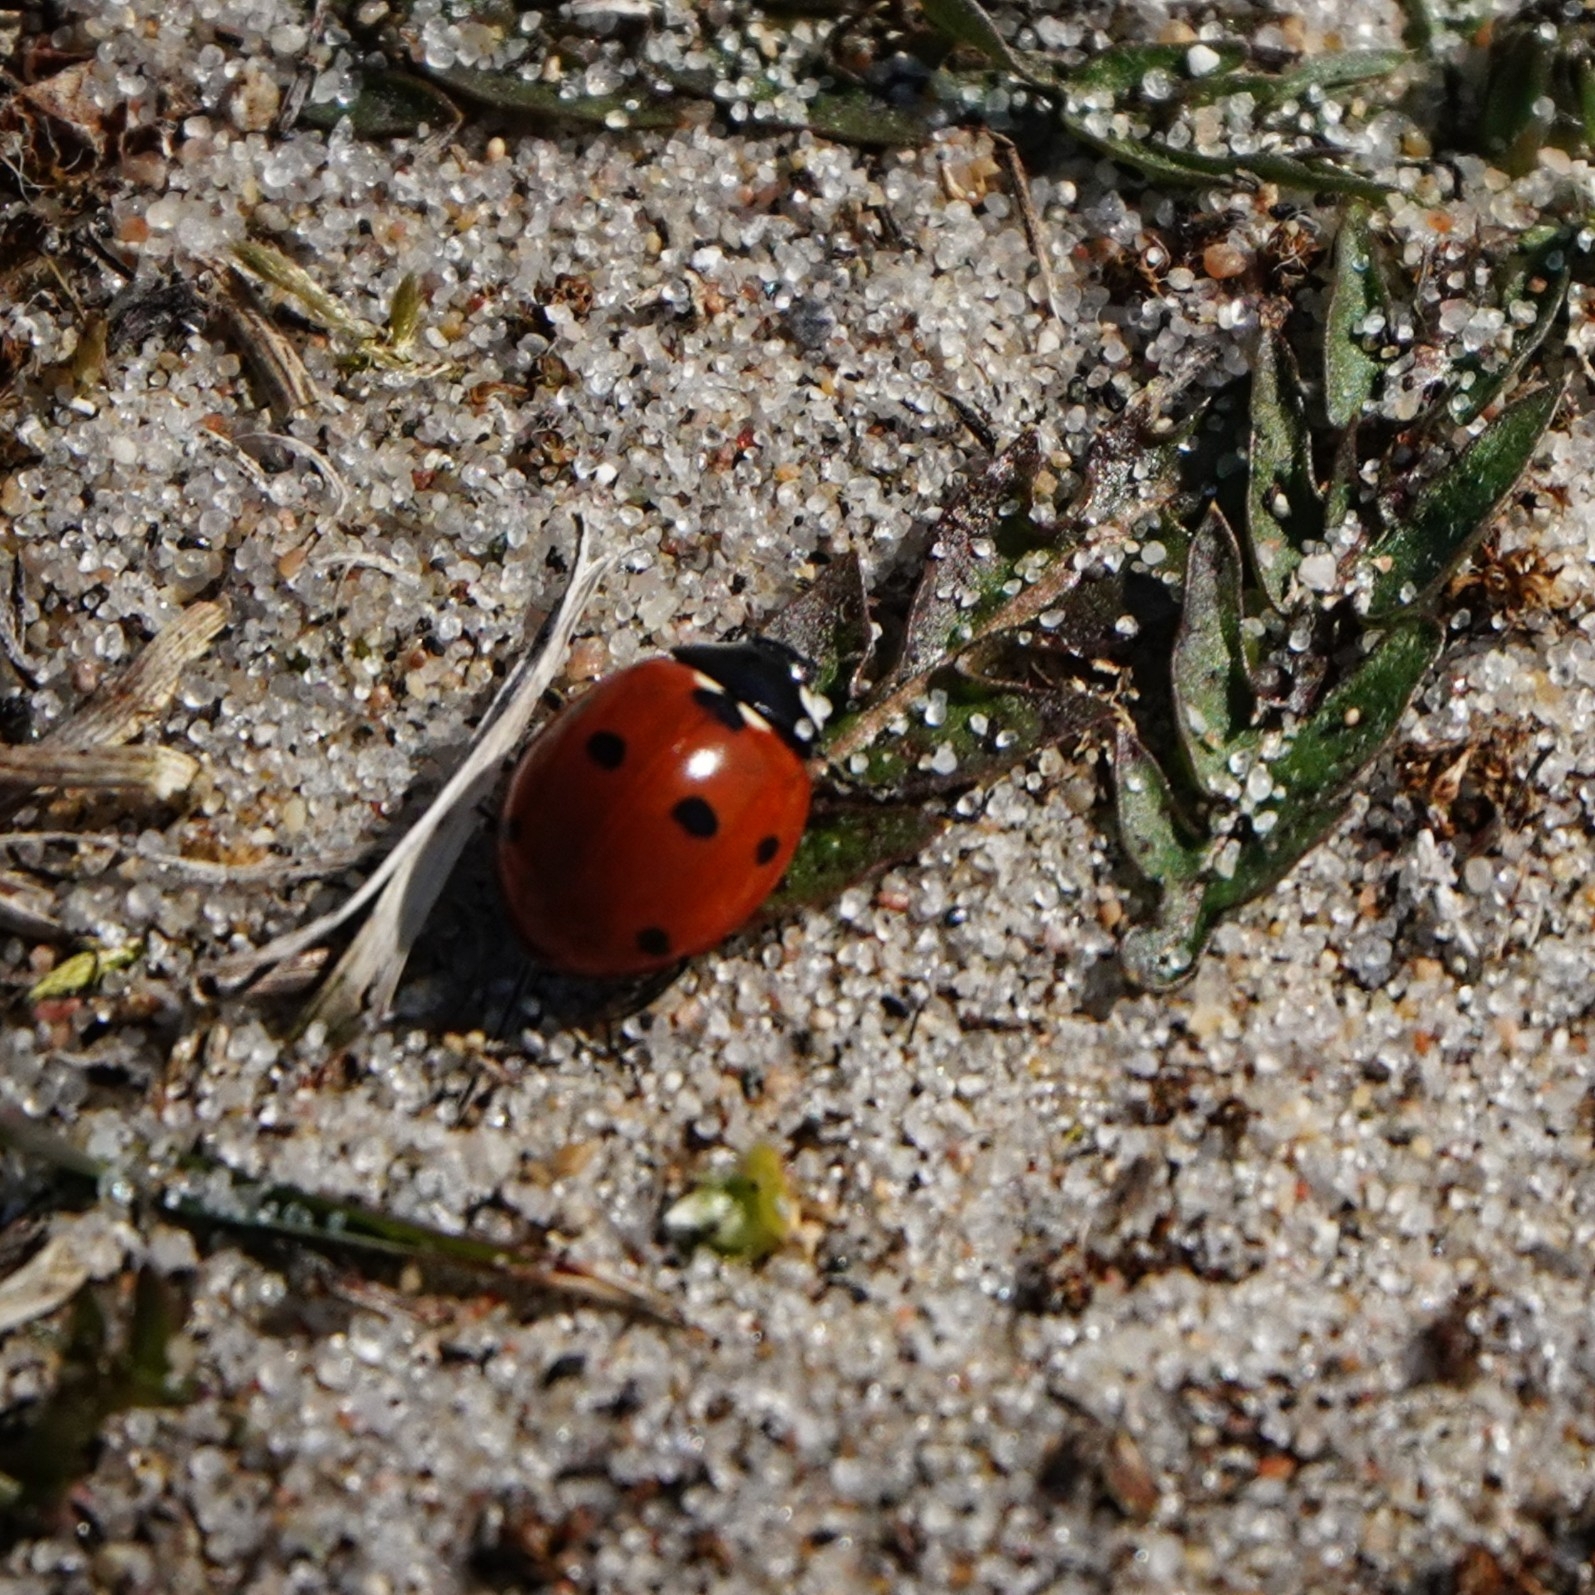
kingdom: Animalia
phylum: Arthropoda
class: Insecta
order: Coleoptera
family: Coccinellidae
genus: Coccinella
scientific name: Coccinella septempunctata
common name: Sevenspotted lady beetle
